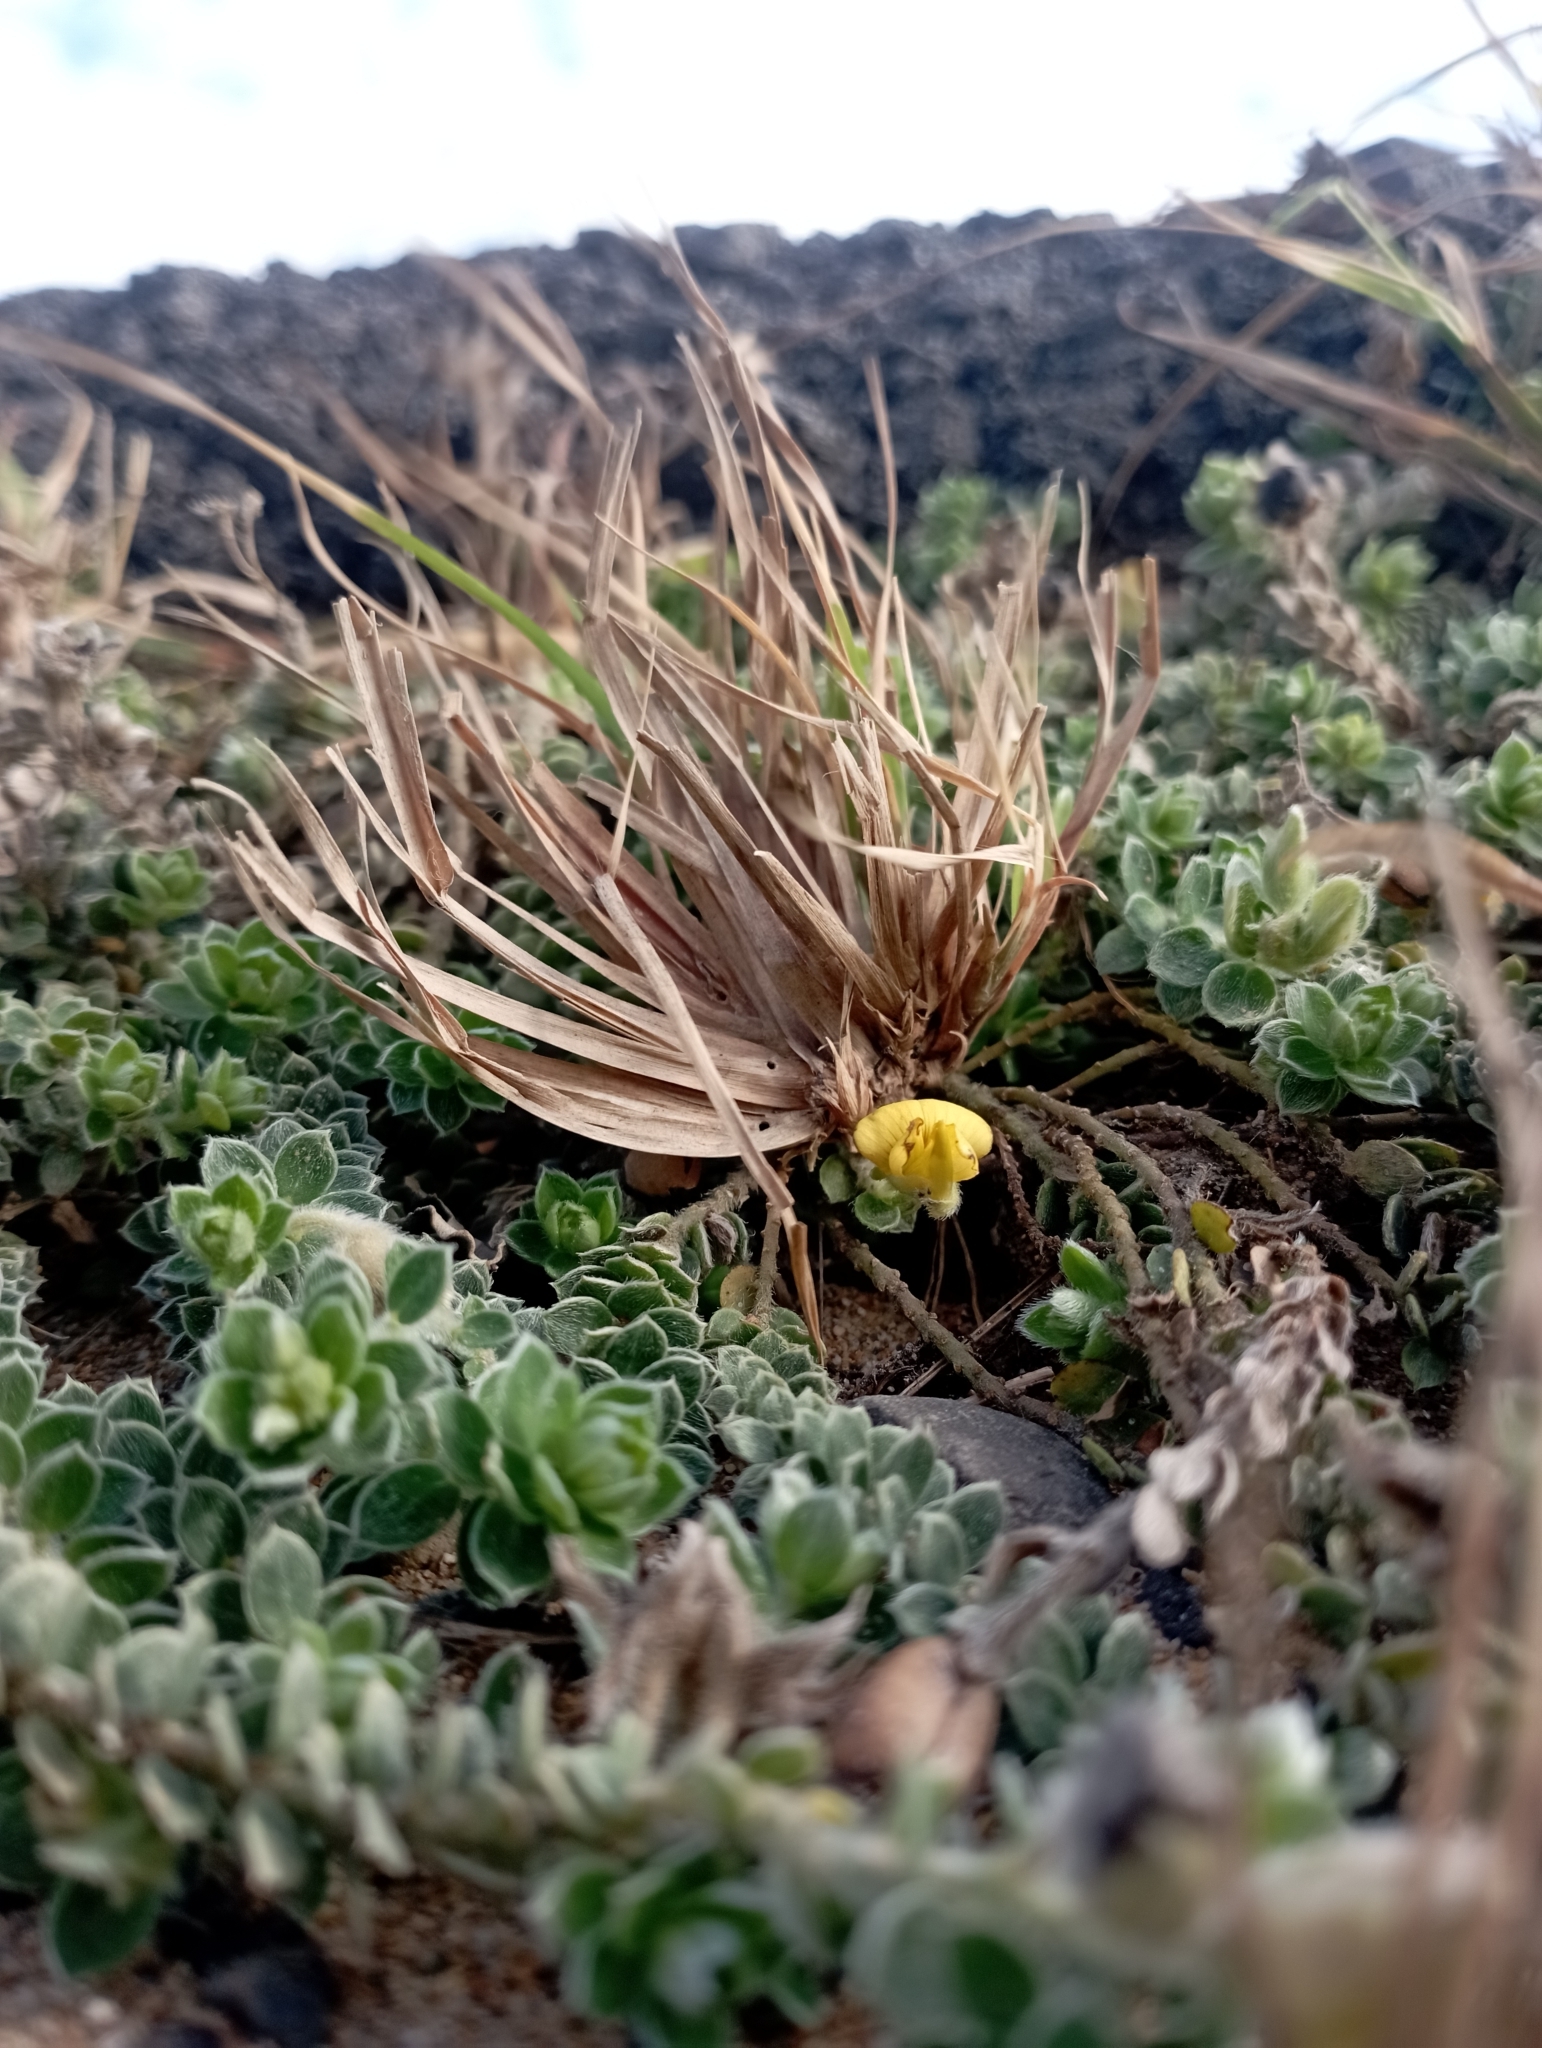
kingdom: Plantae
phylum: Tracheophyta
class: Magnoliopsida
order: Fabales
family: Fabaceae
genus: Crotalaria
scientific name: Crotalaria similis
